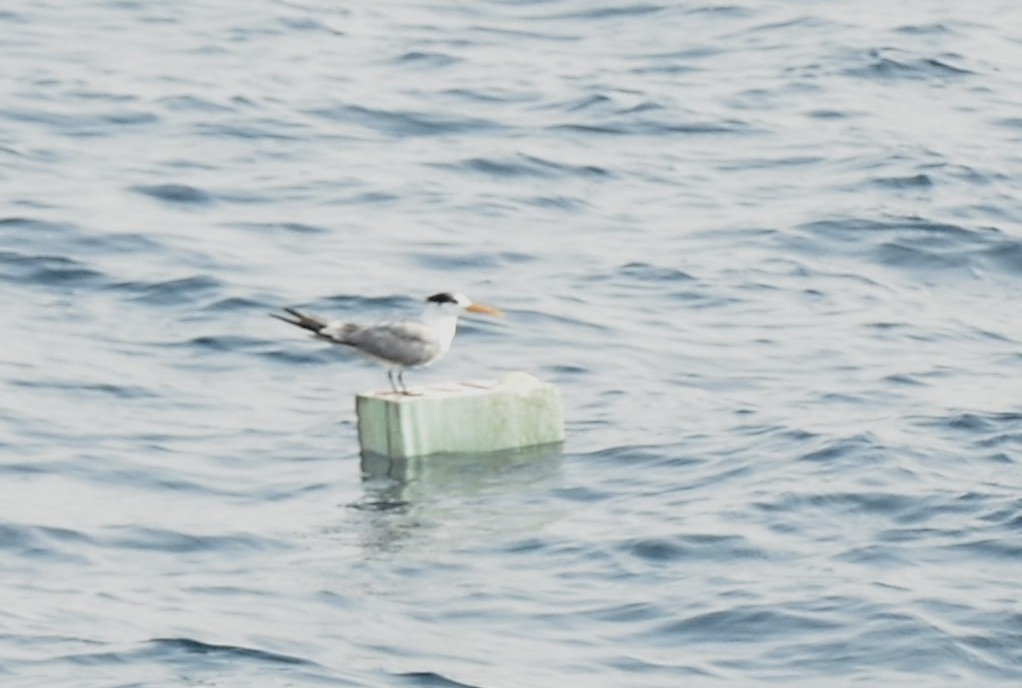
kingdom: Animalia
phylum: Chordata
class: Aves
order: Charadriiformes
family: Laridae
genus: Thalasseus
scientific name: Thalasseus bengalensis
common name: Lesser crested tern
